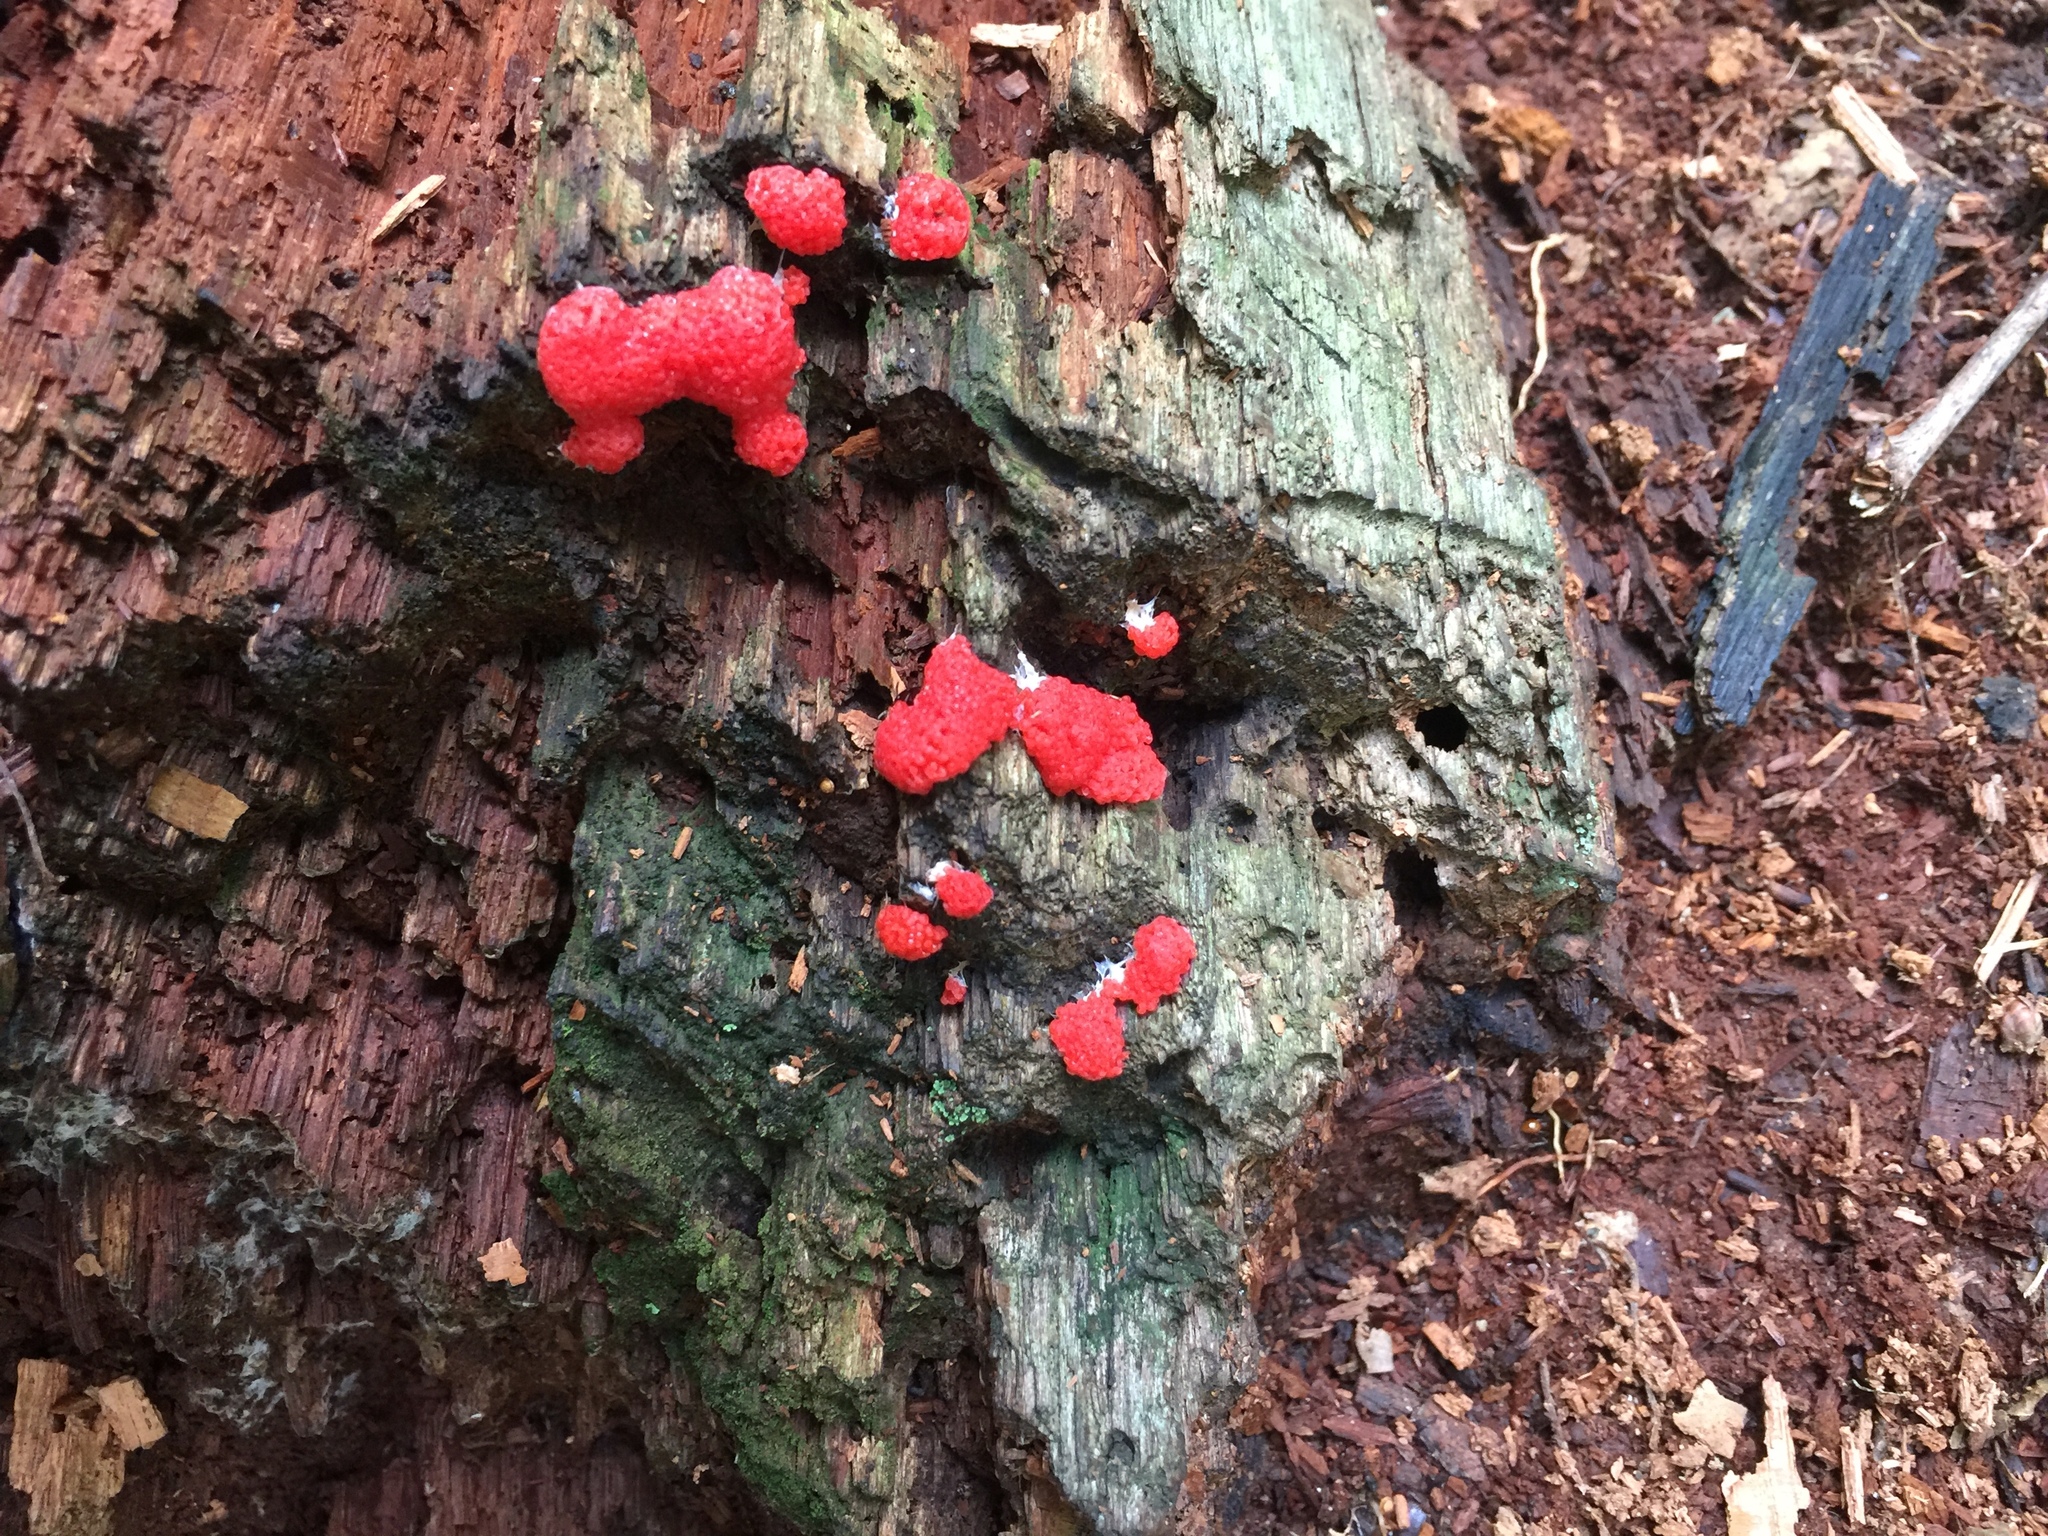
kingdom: Protozoa
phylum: Mycetozoa
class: Myxomycetes
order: Cribrariales
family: Tubiferaceae
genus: Tubifera
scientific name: Tubifera ferruginosa
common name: Red raspberry slime mold
